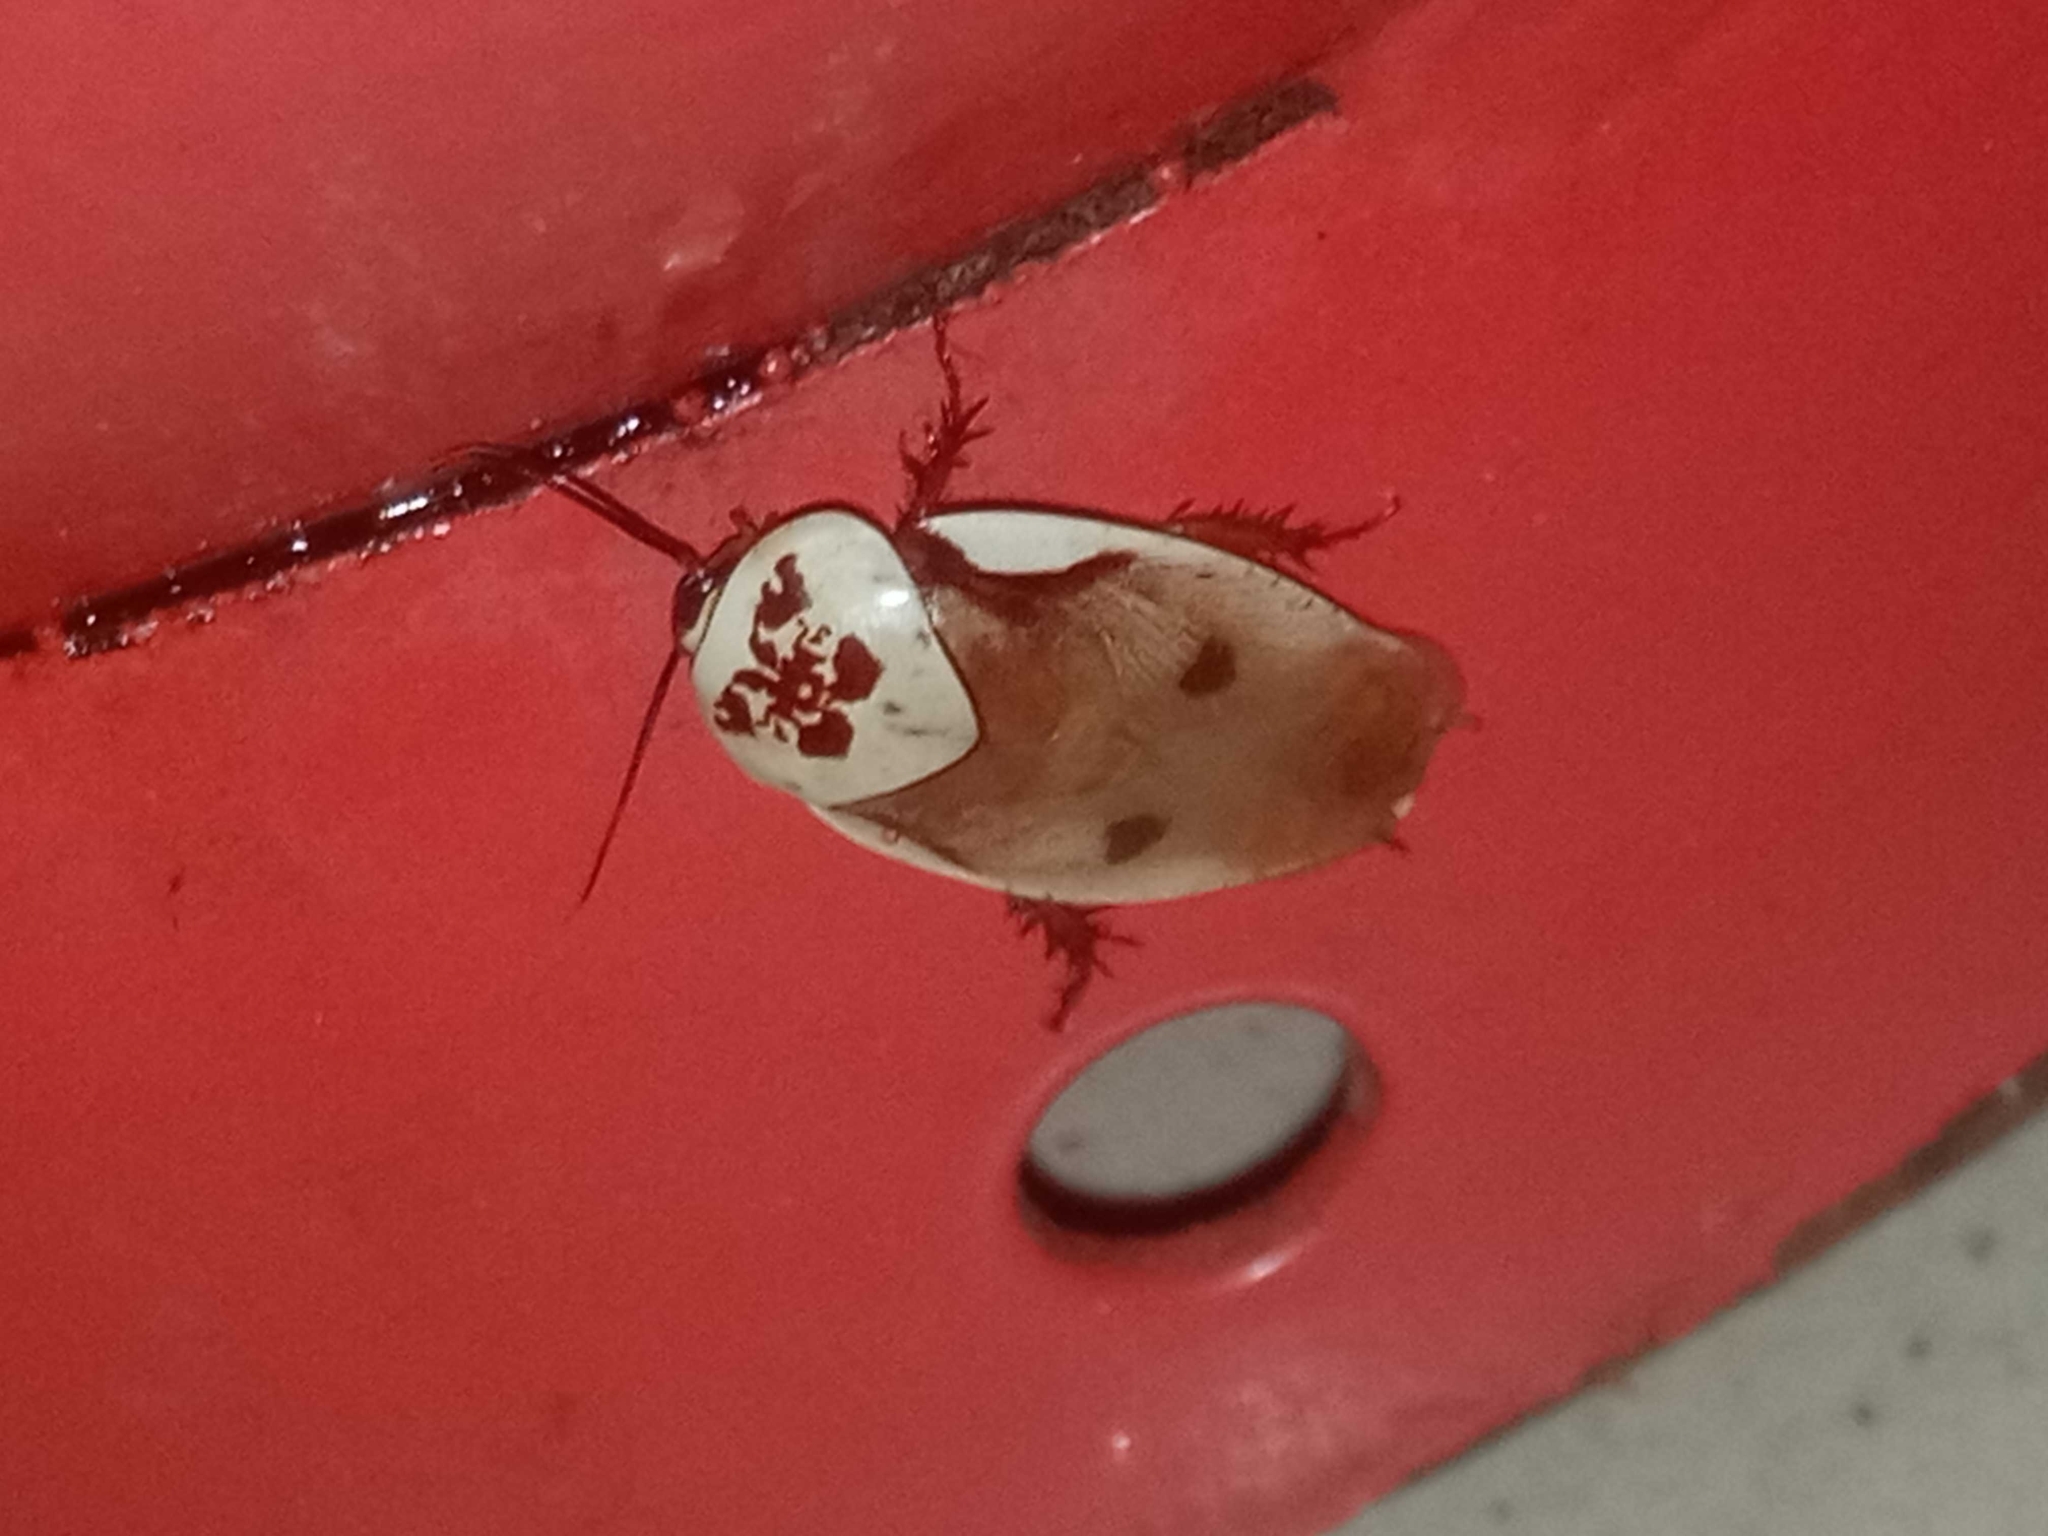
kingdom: Animalia
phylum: Arthropoda
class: Insecta
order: Blattodea
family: Blaberidae
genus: Gyna
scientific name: Gyna centurio
